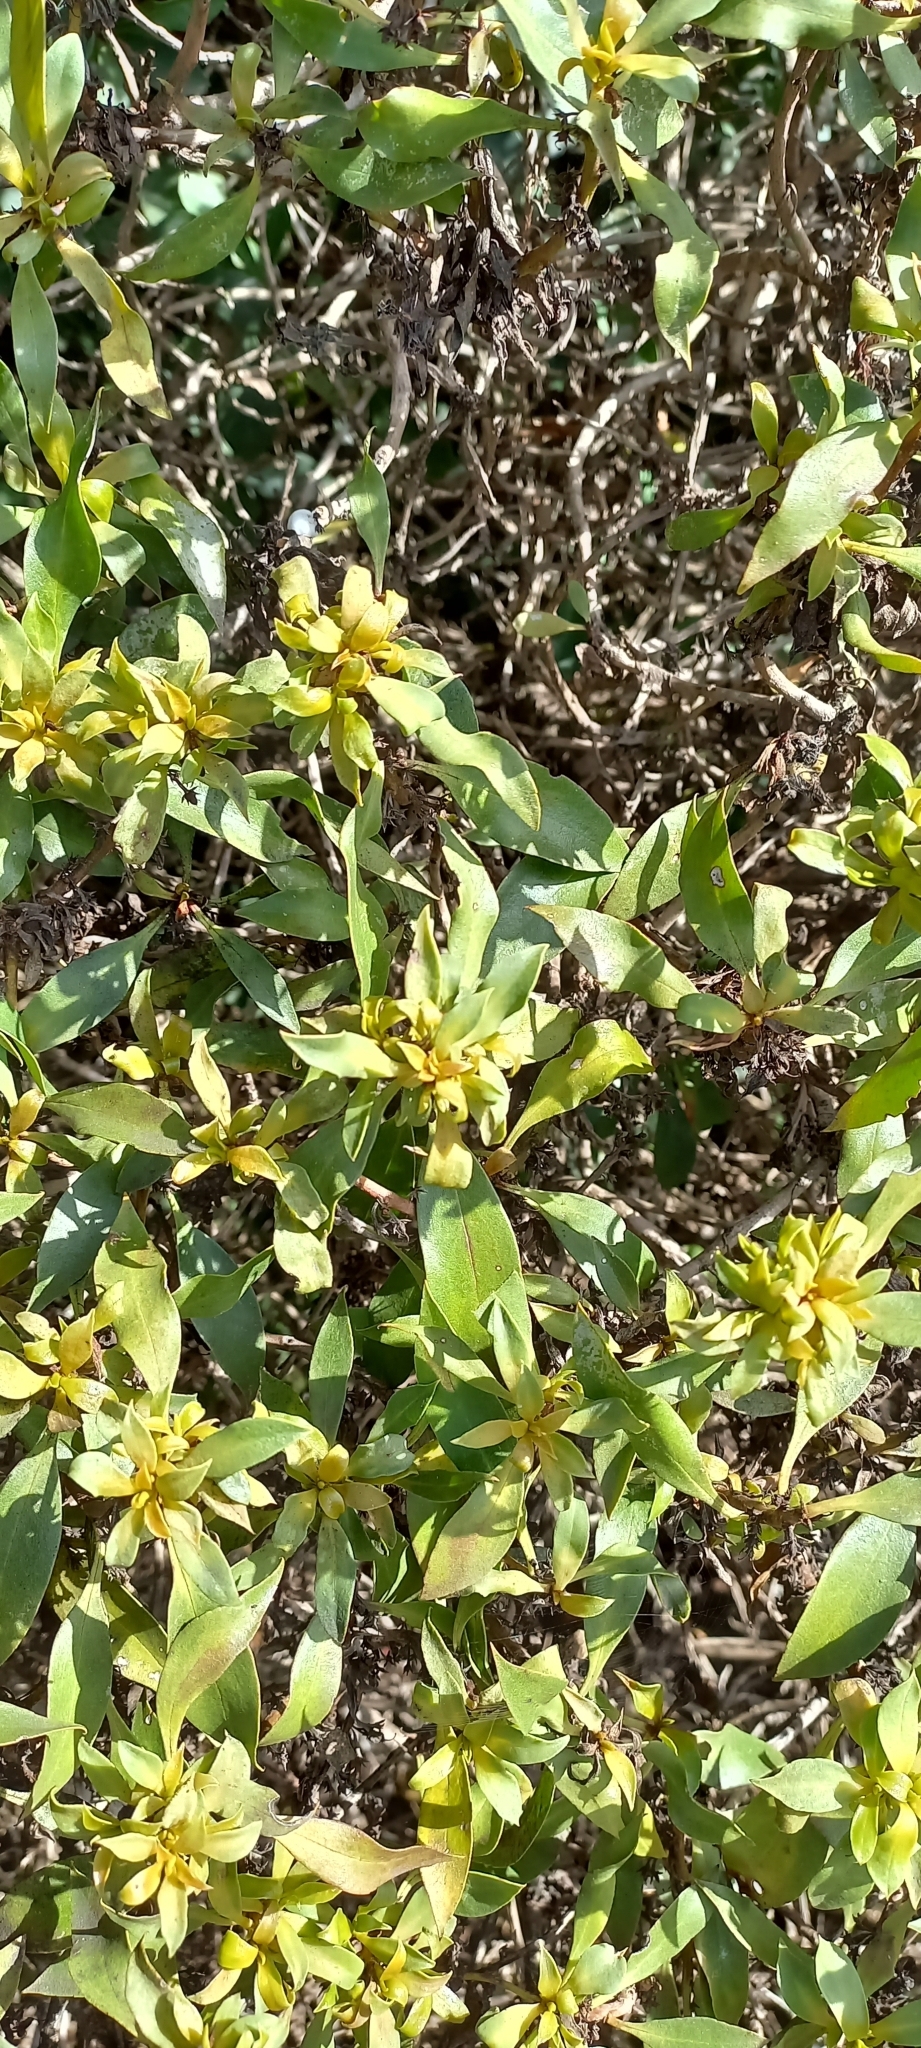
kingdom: Plantae
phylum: Tracheophyta
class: Magnoliopsida
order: Lamiales
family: Scrophulariaceae
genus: Myoporum
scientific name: Myoporum insulare
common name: Common boobialla
